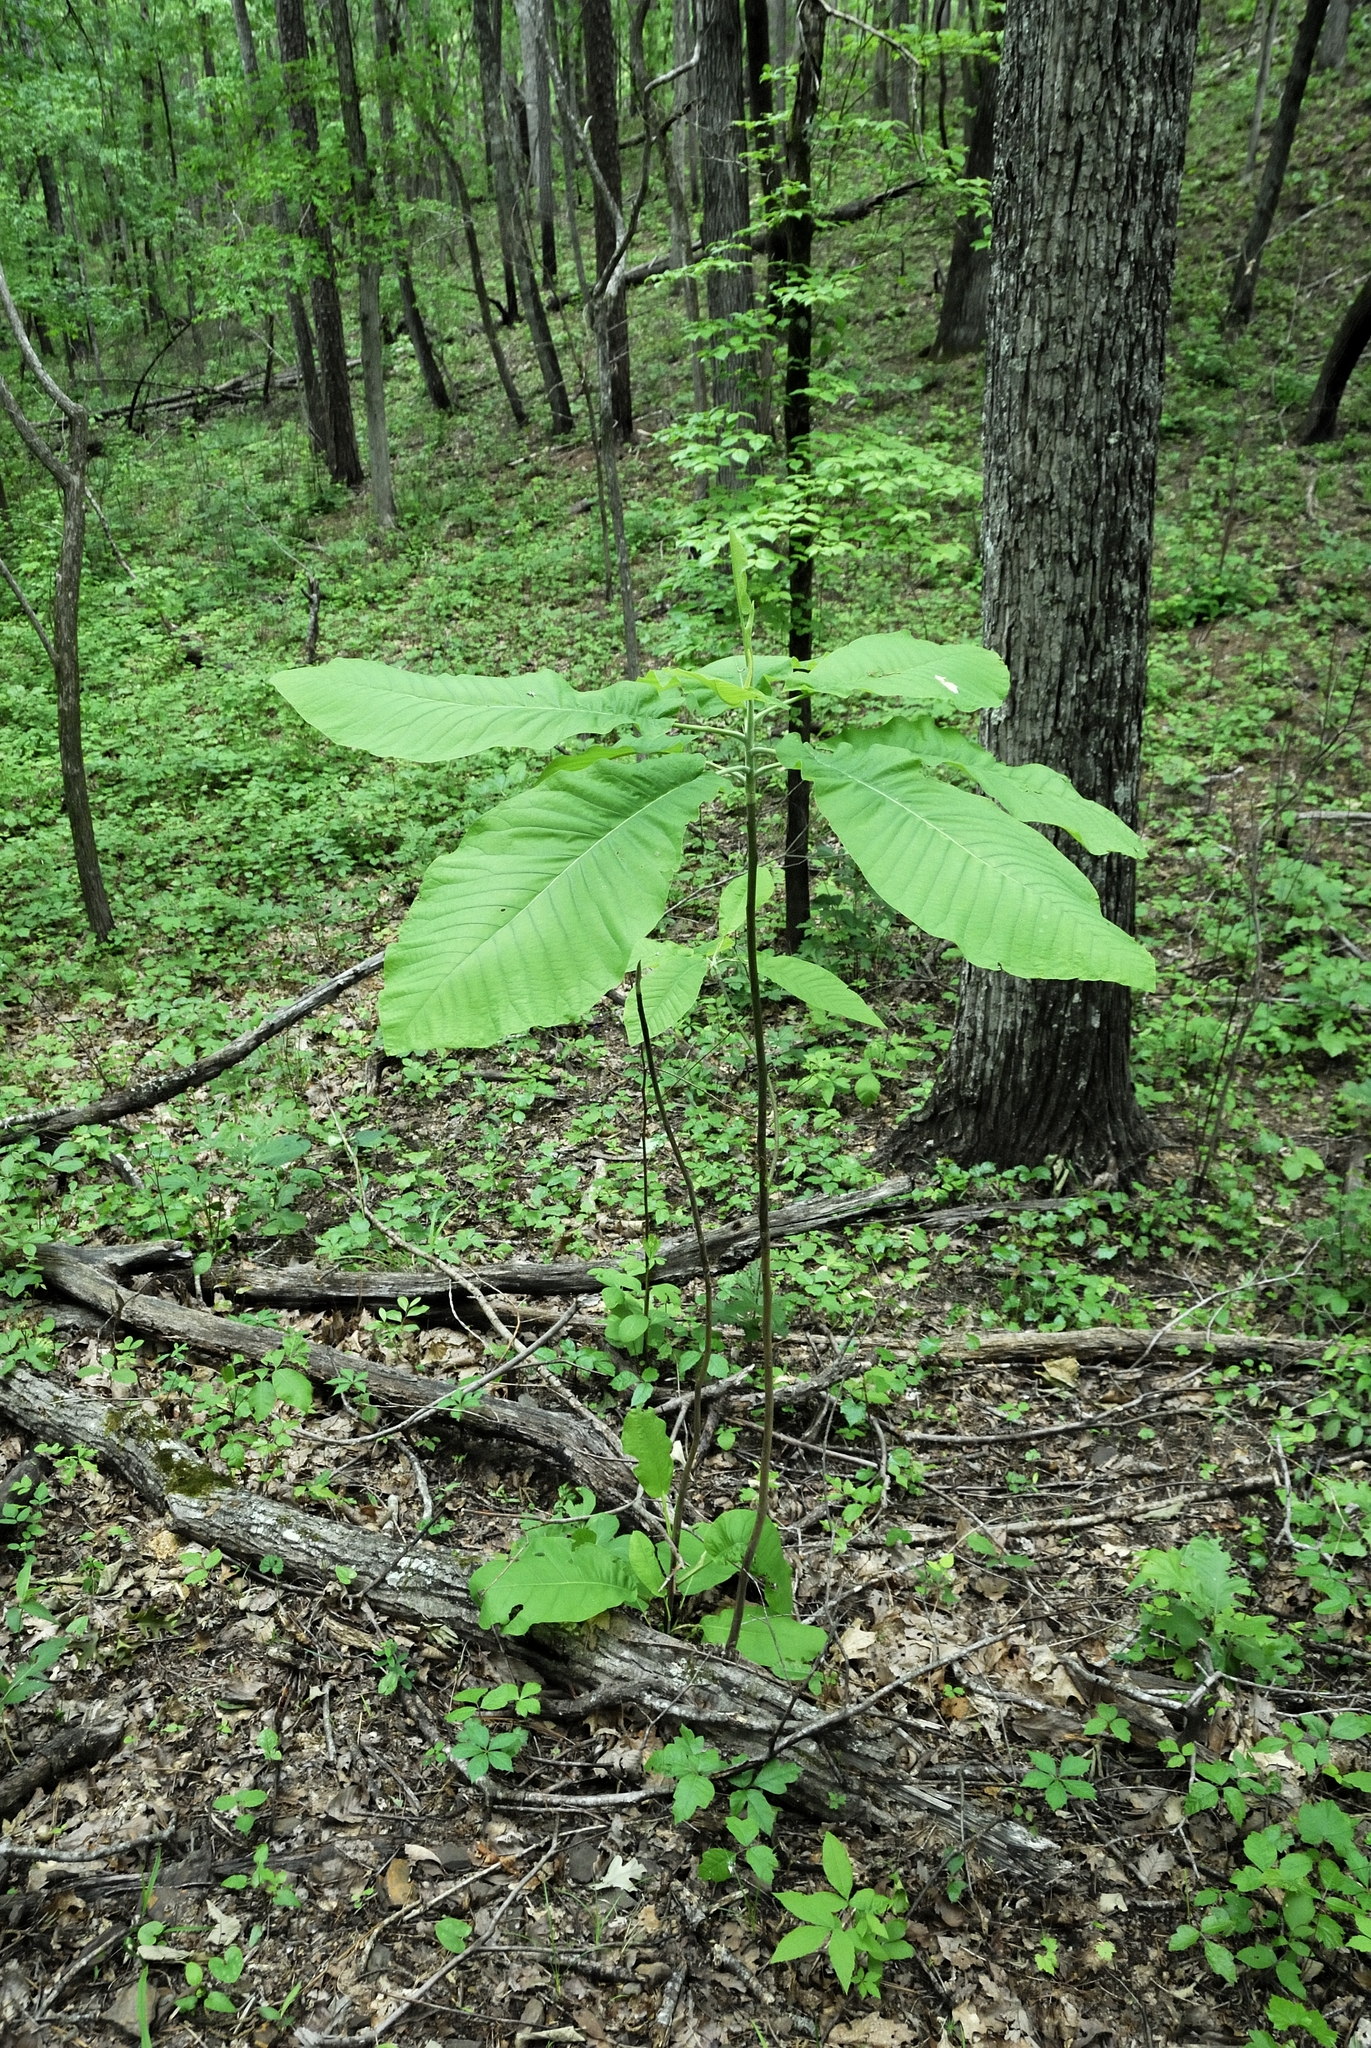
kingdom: Plantae
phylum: Tracheophyta
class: Magnoliopsida
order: Magnoliales
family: Magnoliaceae
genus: Magnolia
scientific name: Magnolia macrophylla
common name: Big-leaf magnolia
